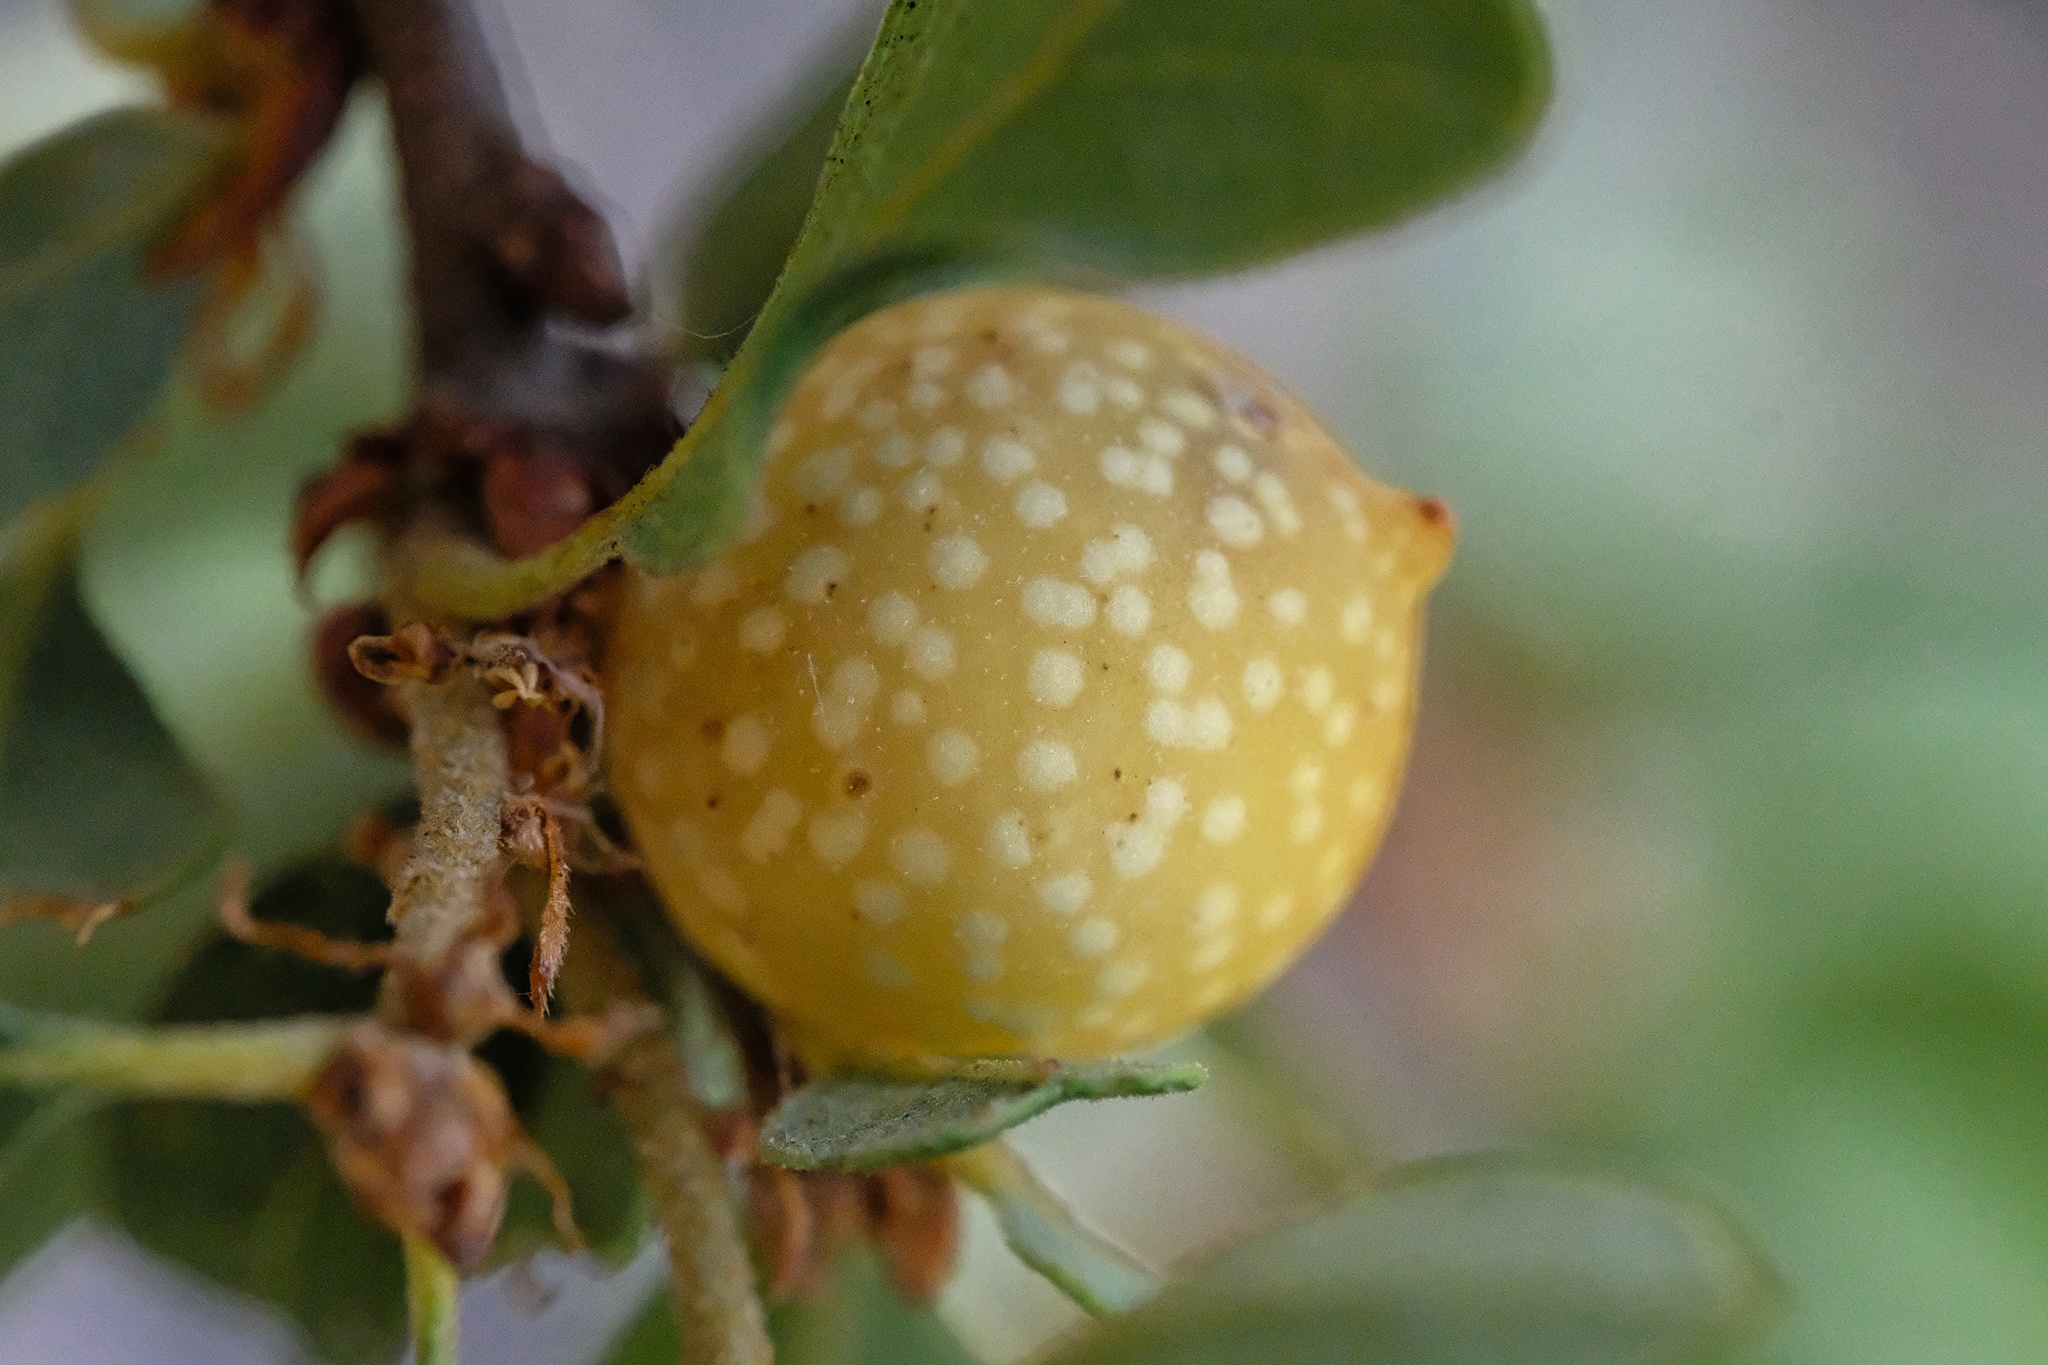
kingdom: Animalia
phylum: Arthropoda
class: Insecta
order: Hymenoptera
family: Cynipidae
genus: Burnettweldia
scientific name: Burnettweldia
